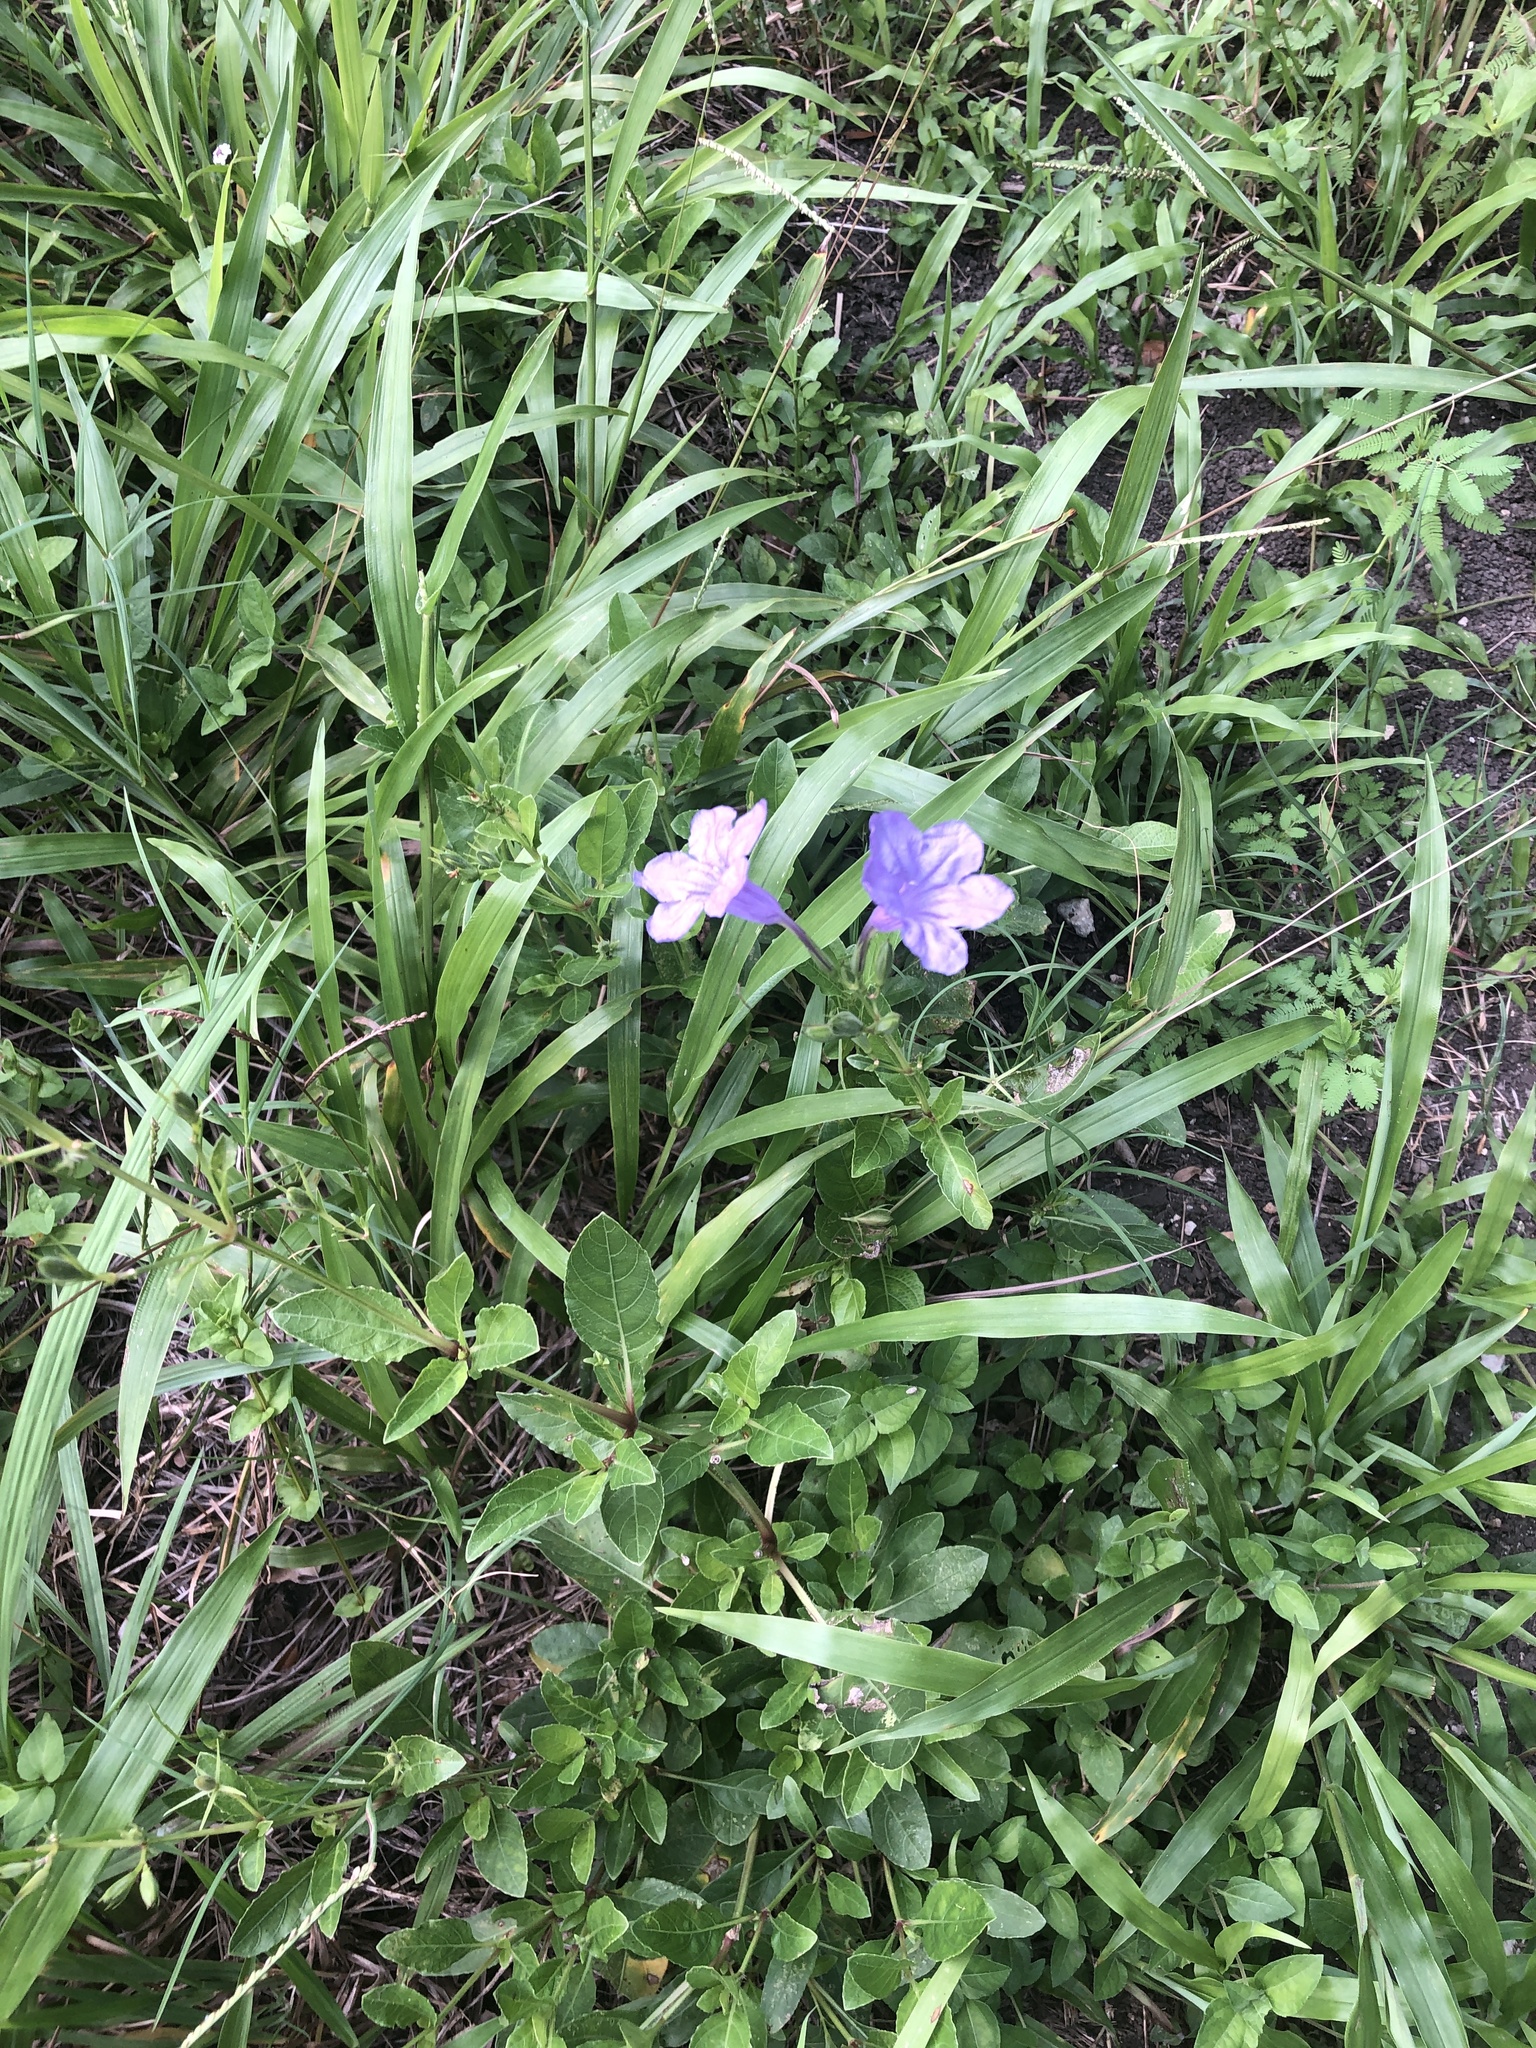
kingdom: Plantae
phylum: Tracheophyta
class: Magnoliopsida
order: Lamiales
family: Acanthaceae
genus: Ruellia
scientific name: Ruellia ciliatiflora
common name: Hairyflower wild petunia
